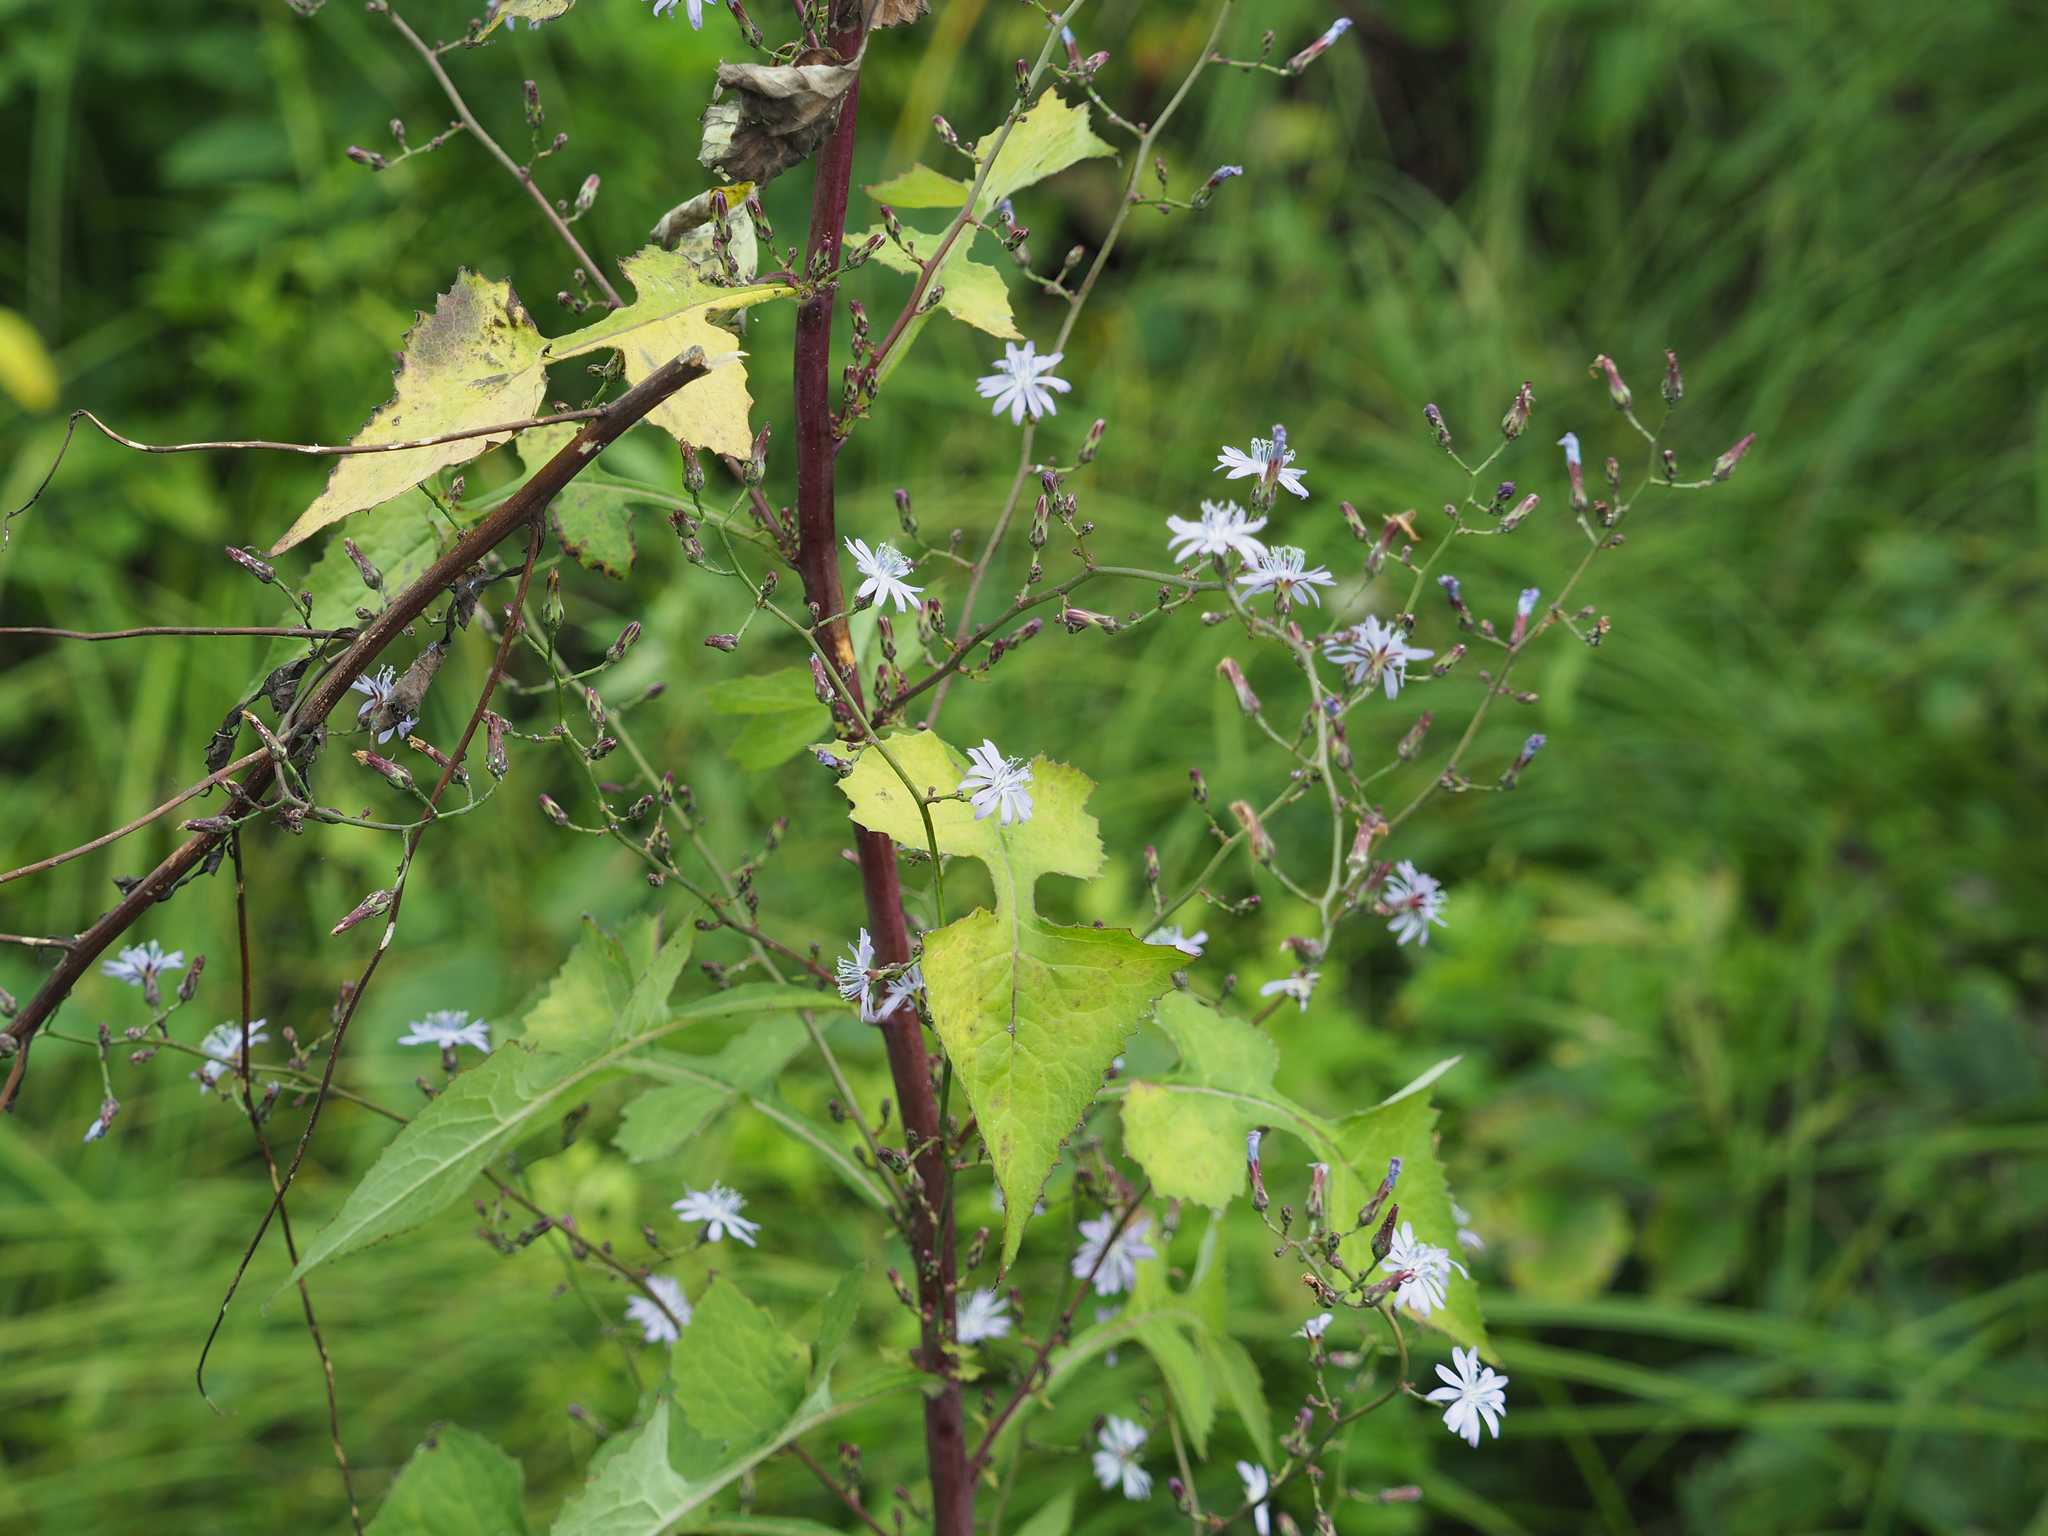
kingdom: Plantae
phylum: Tracheophyta
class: Magnoliopsida
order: Asterales
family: Asteraceae
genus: Lactuca
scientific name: Lactuca floridana
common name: Woodland lettuce
